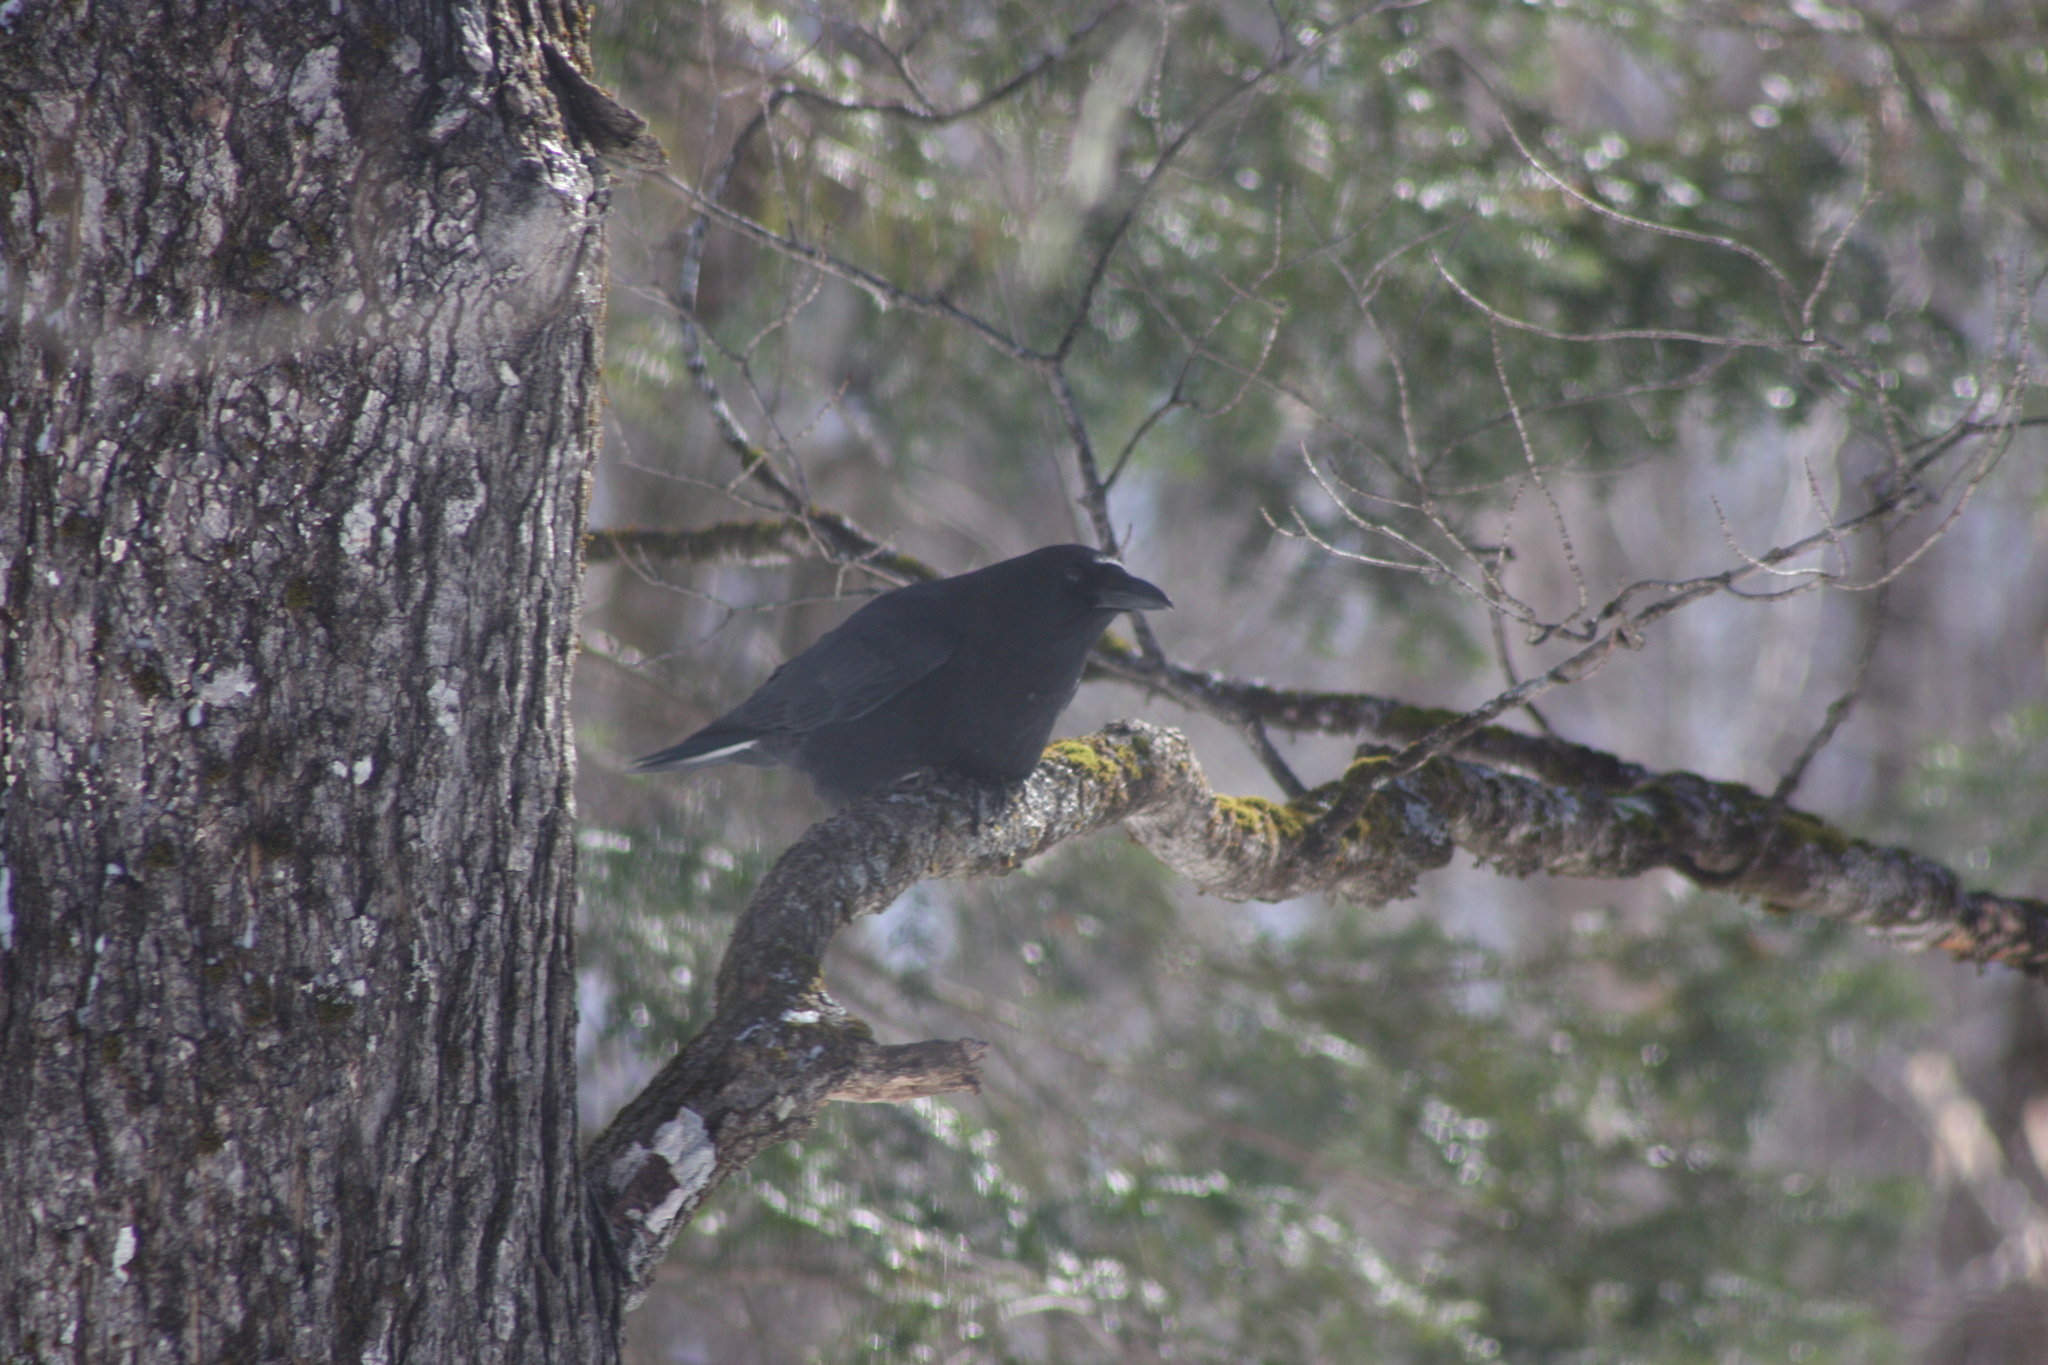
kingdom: Animalia
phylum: Chordata
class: Aves
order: Passeriformes
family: Corvidae
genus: Corvus
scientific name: Corvus brachyrhynchos
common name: American crow
